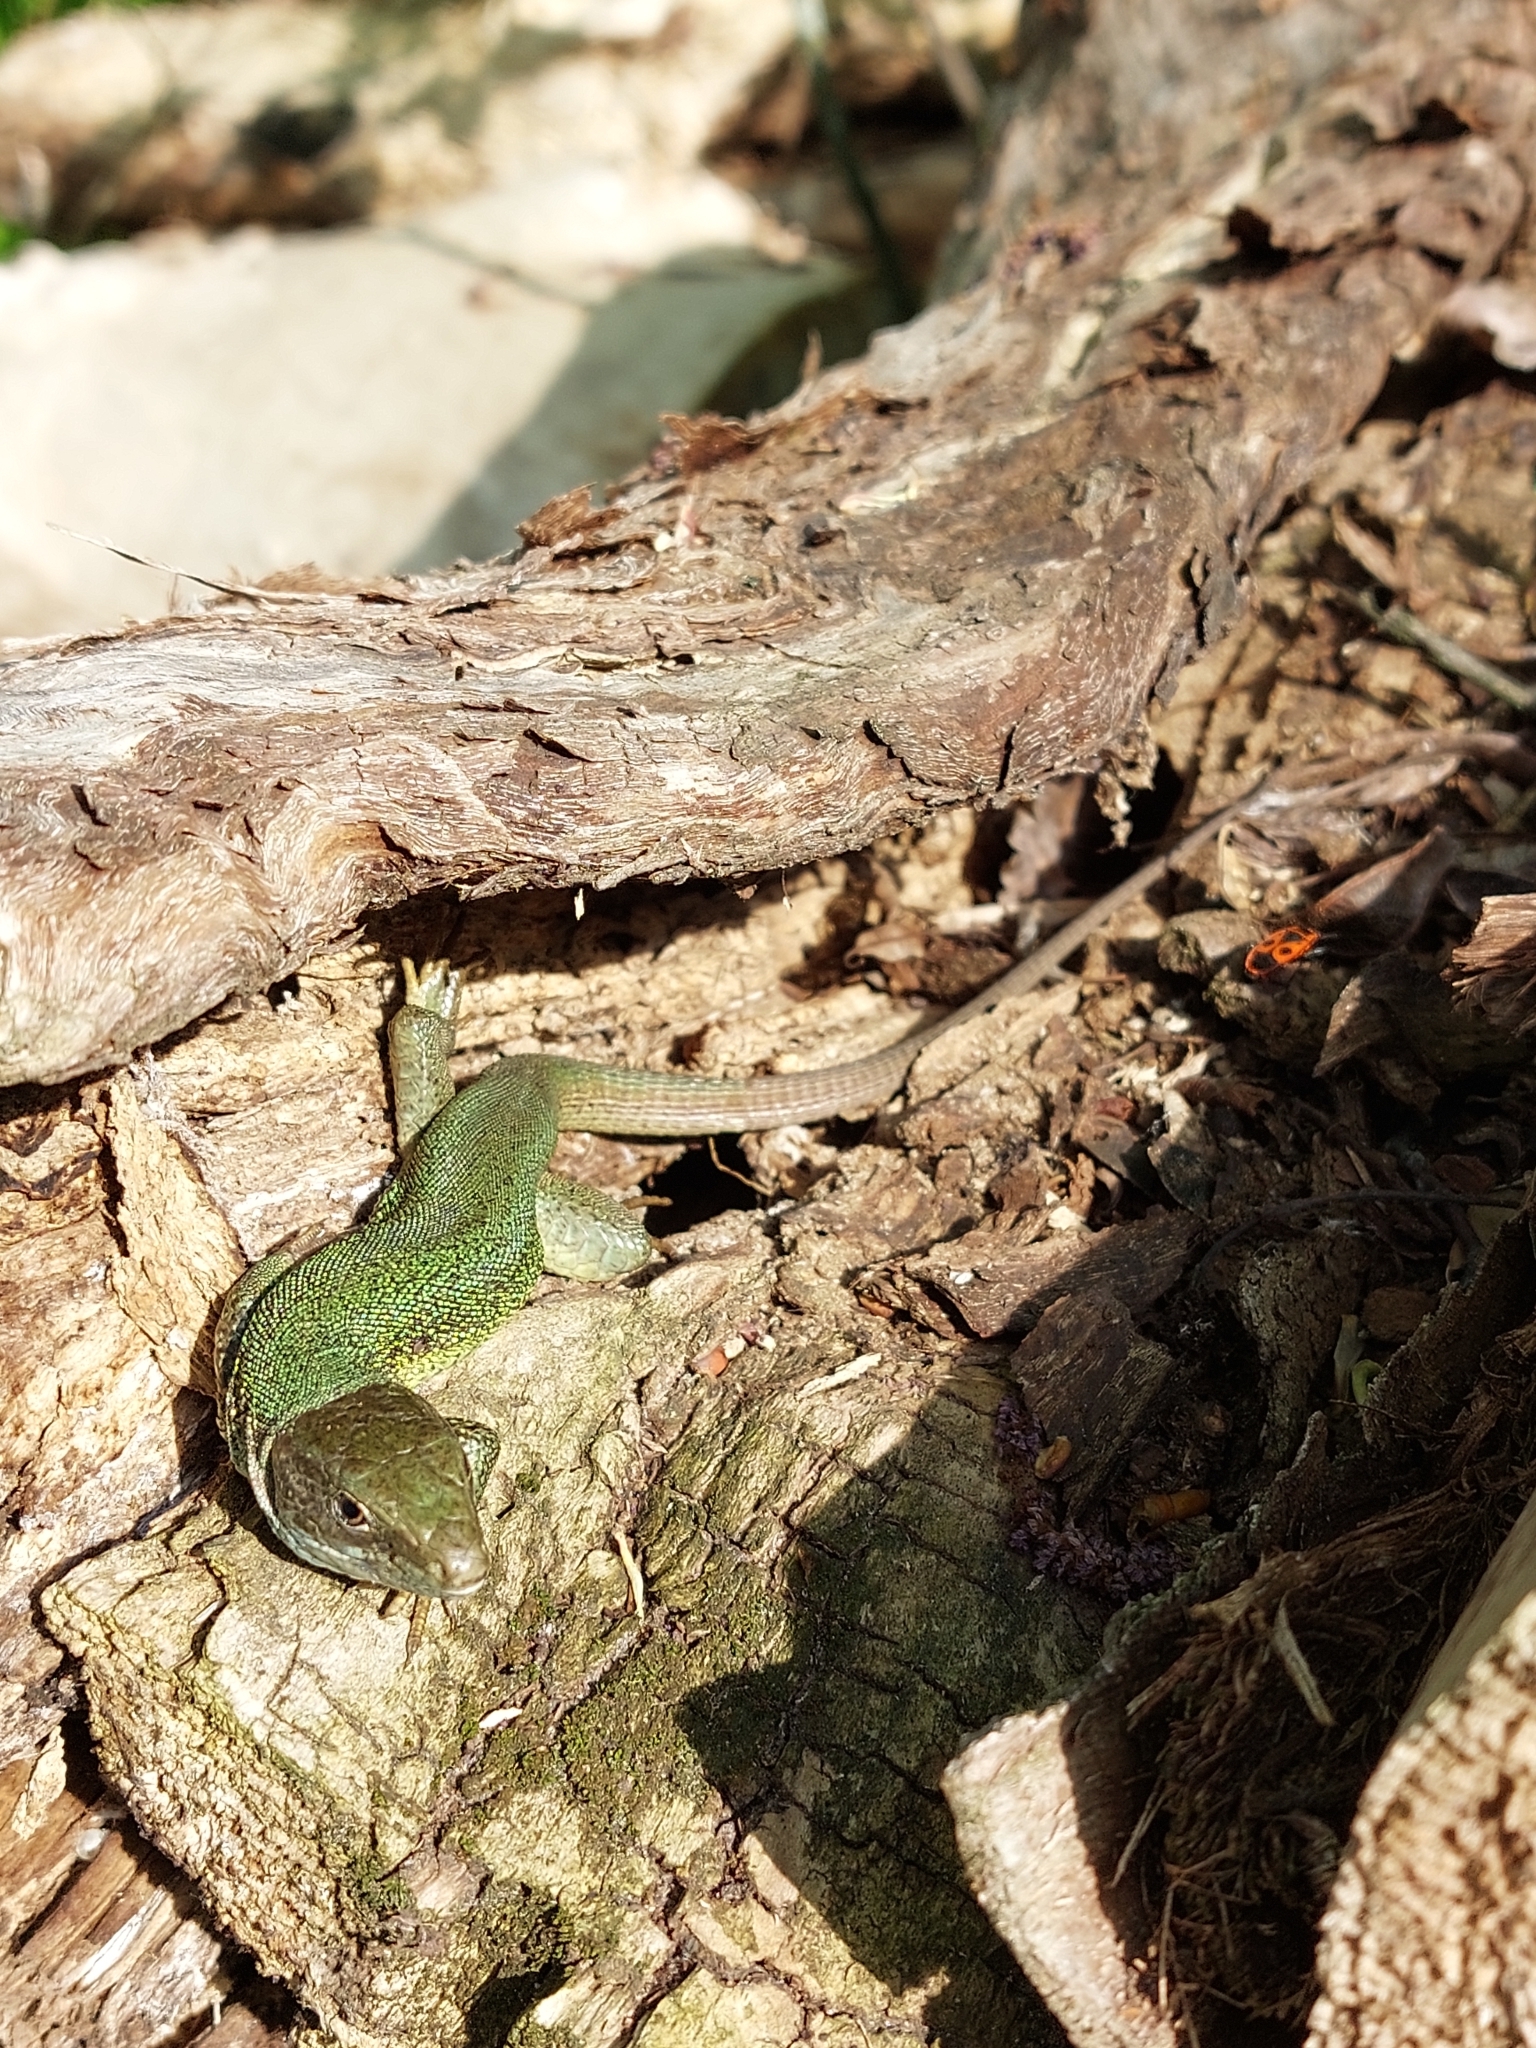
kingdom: Animalia
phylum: Chordata
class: Squamata
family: Lacertidae
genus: Lacerta
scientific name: Lacerta viridis
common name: European green lizard
